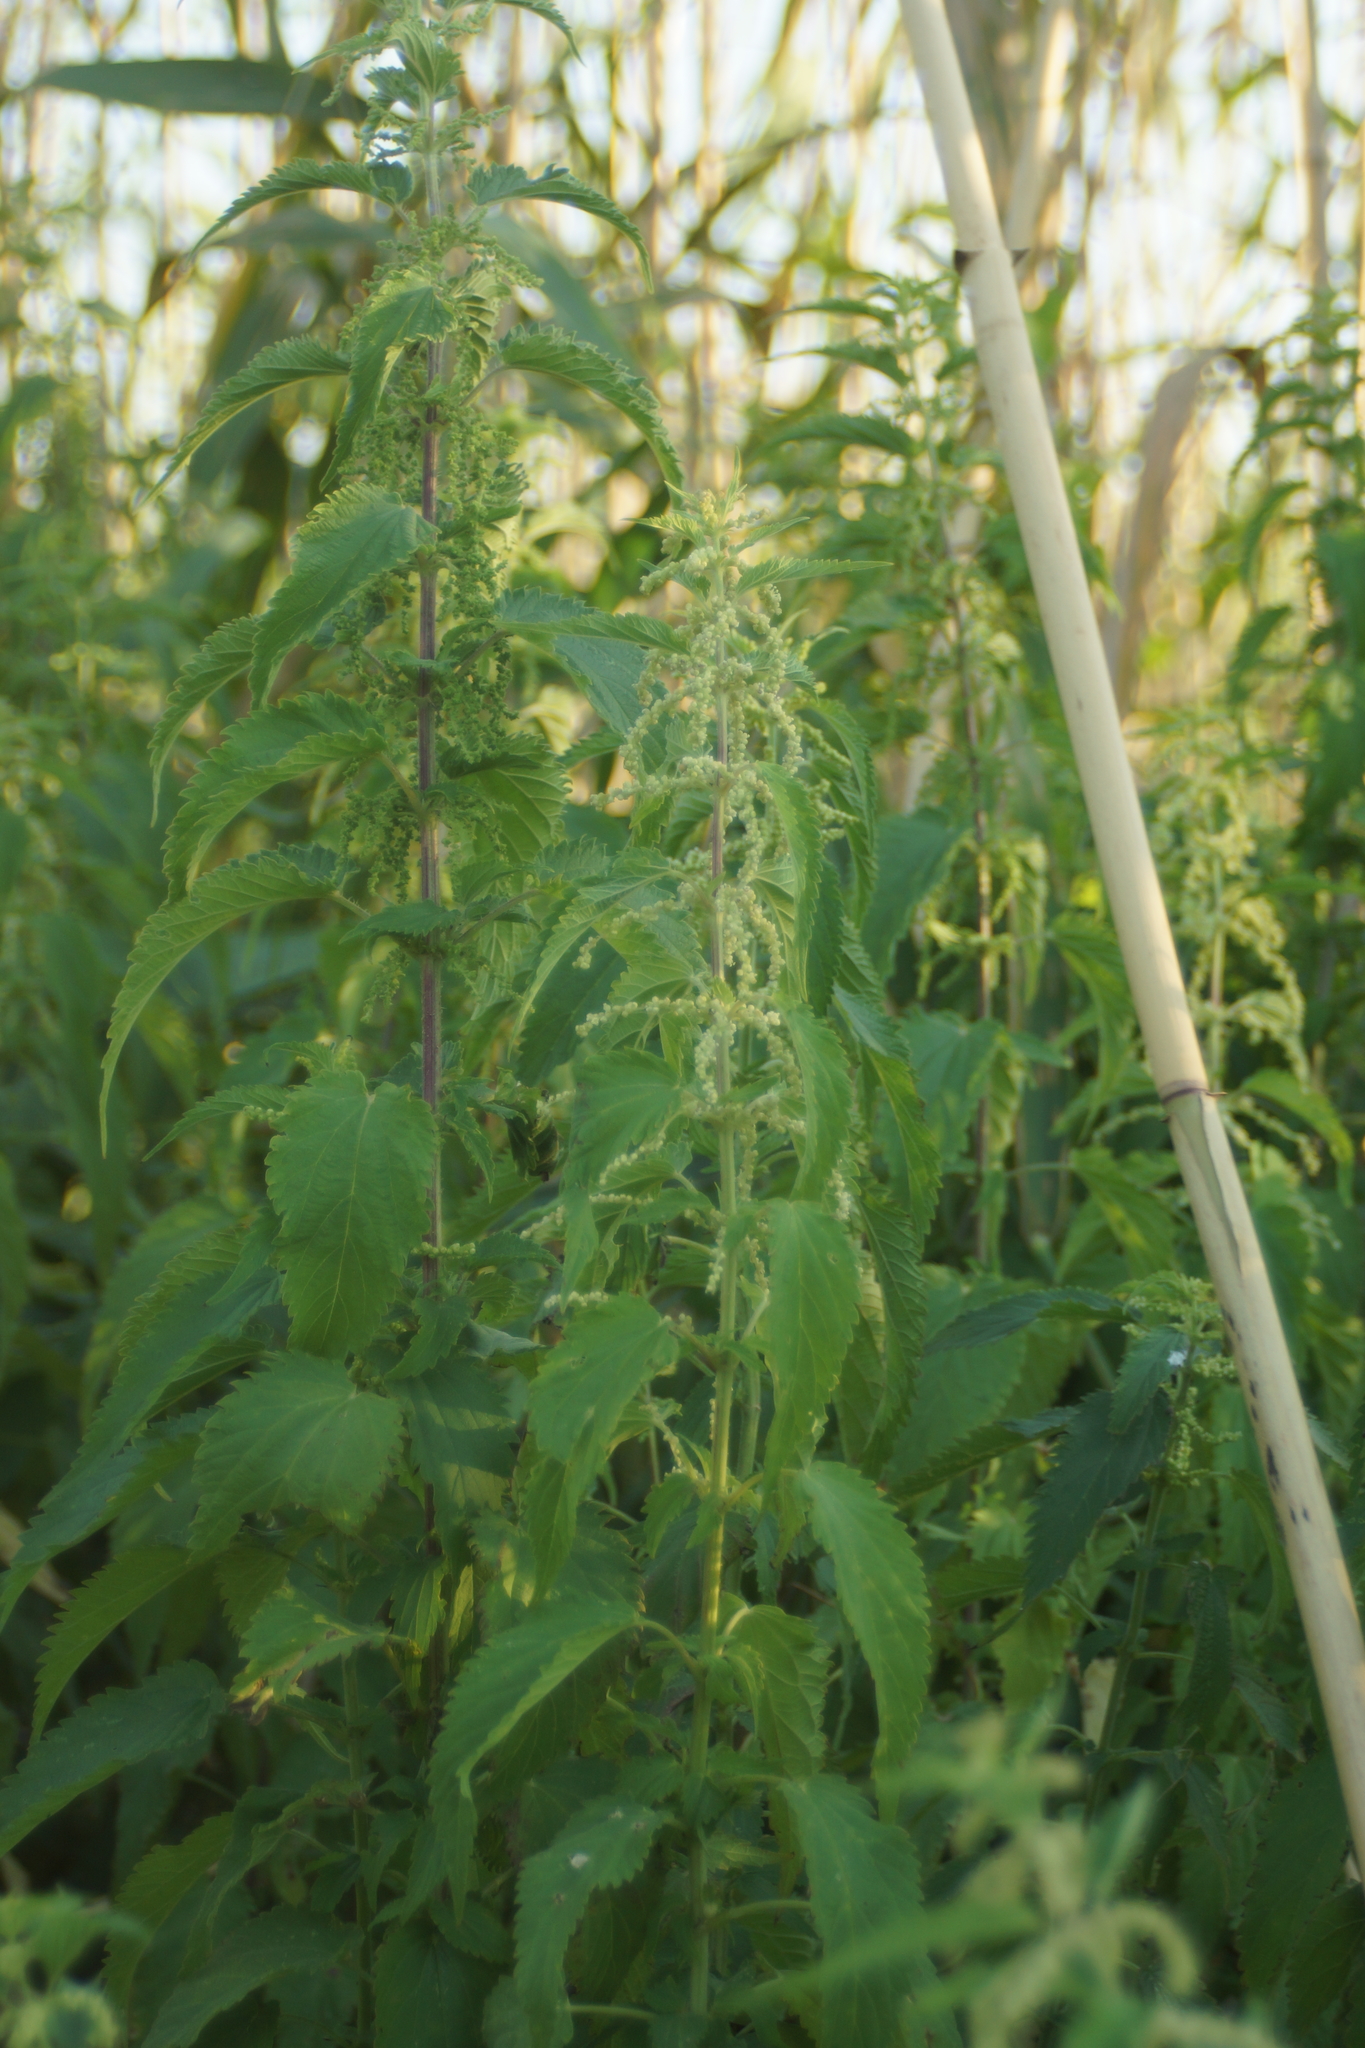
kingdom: Plantae
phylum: Tracheophyta
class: Magnoliopsida
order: Rosales
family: Urticaceae
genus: Urtica
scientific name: Urtica dioica
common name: Common nettle
